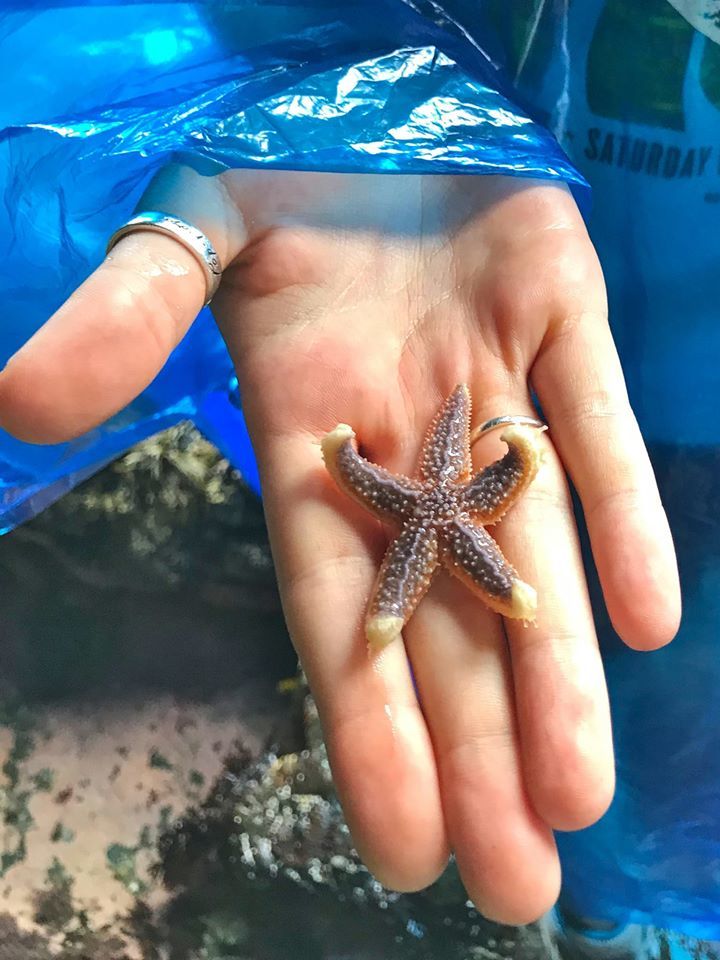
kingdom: Animalia
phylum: Echinodermata
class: Asteroidea
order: Forcipulatida
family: Asteriidae
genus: Asterias
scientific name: Asterias rubens
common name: Common starfish
